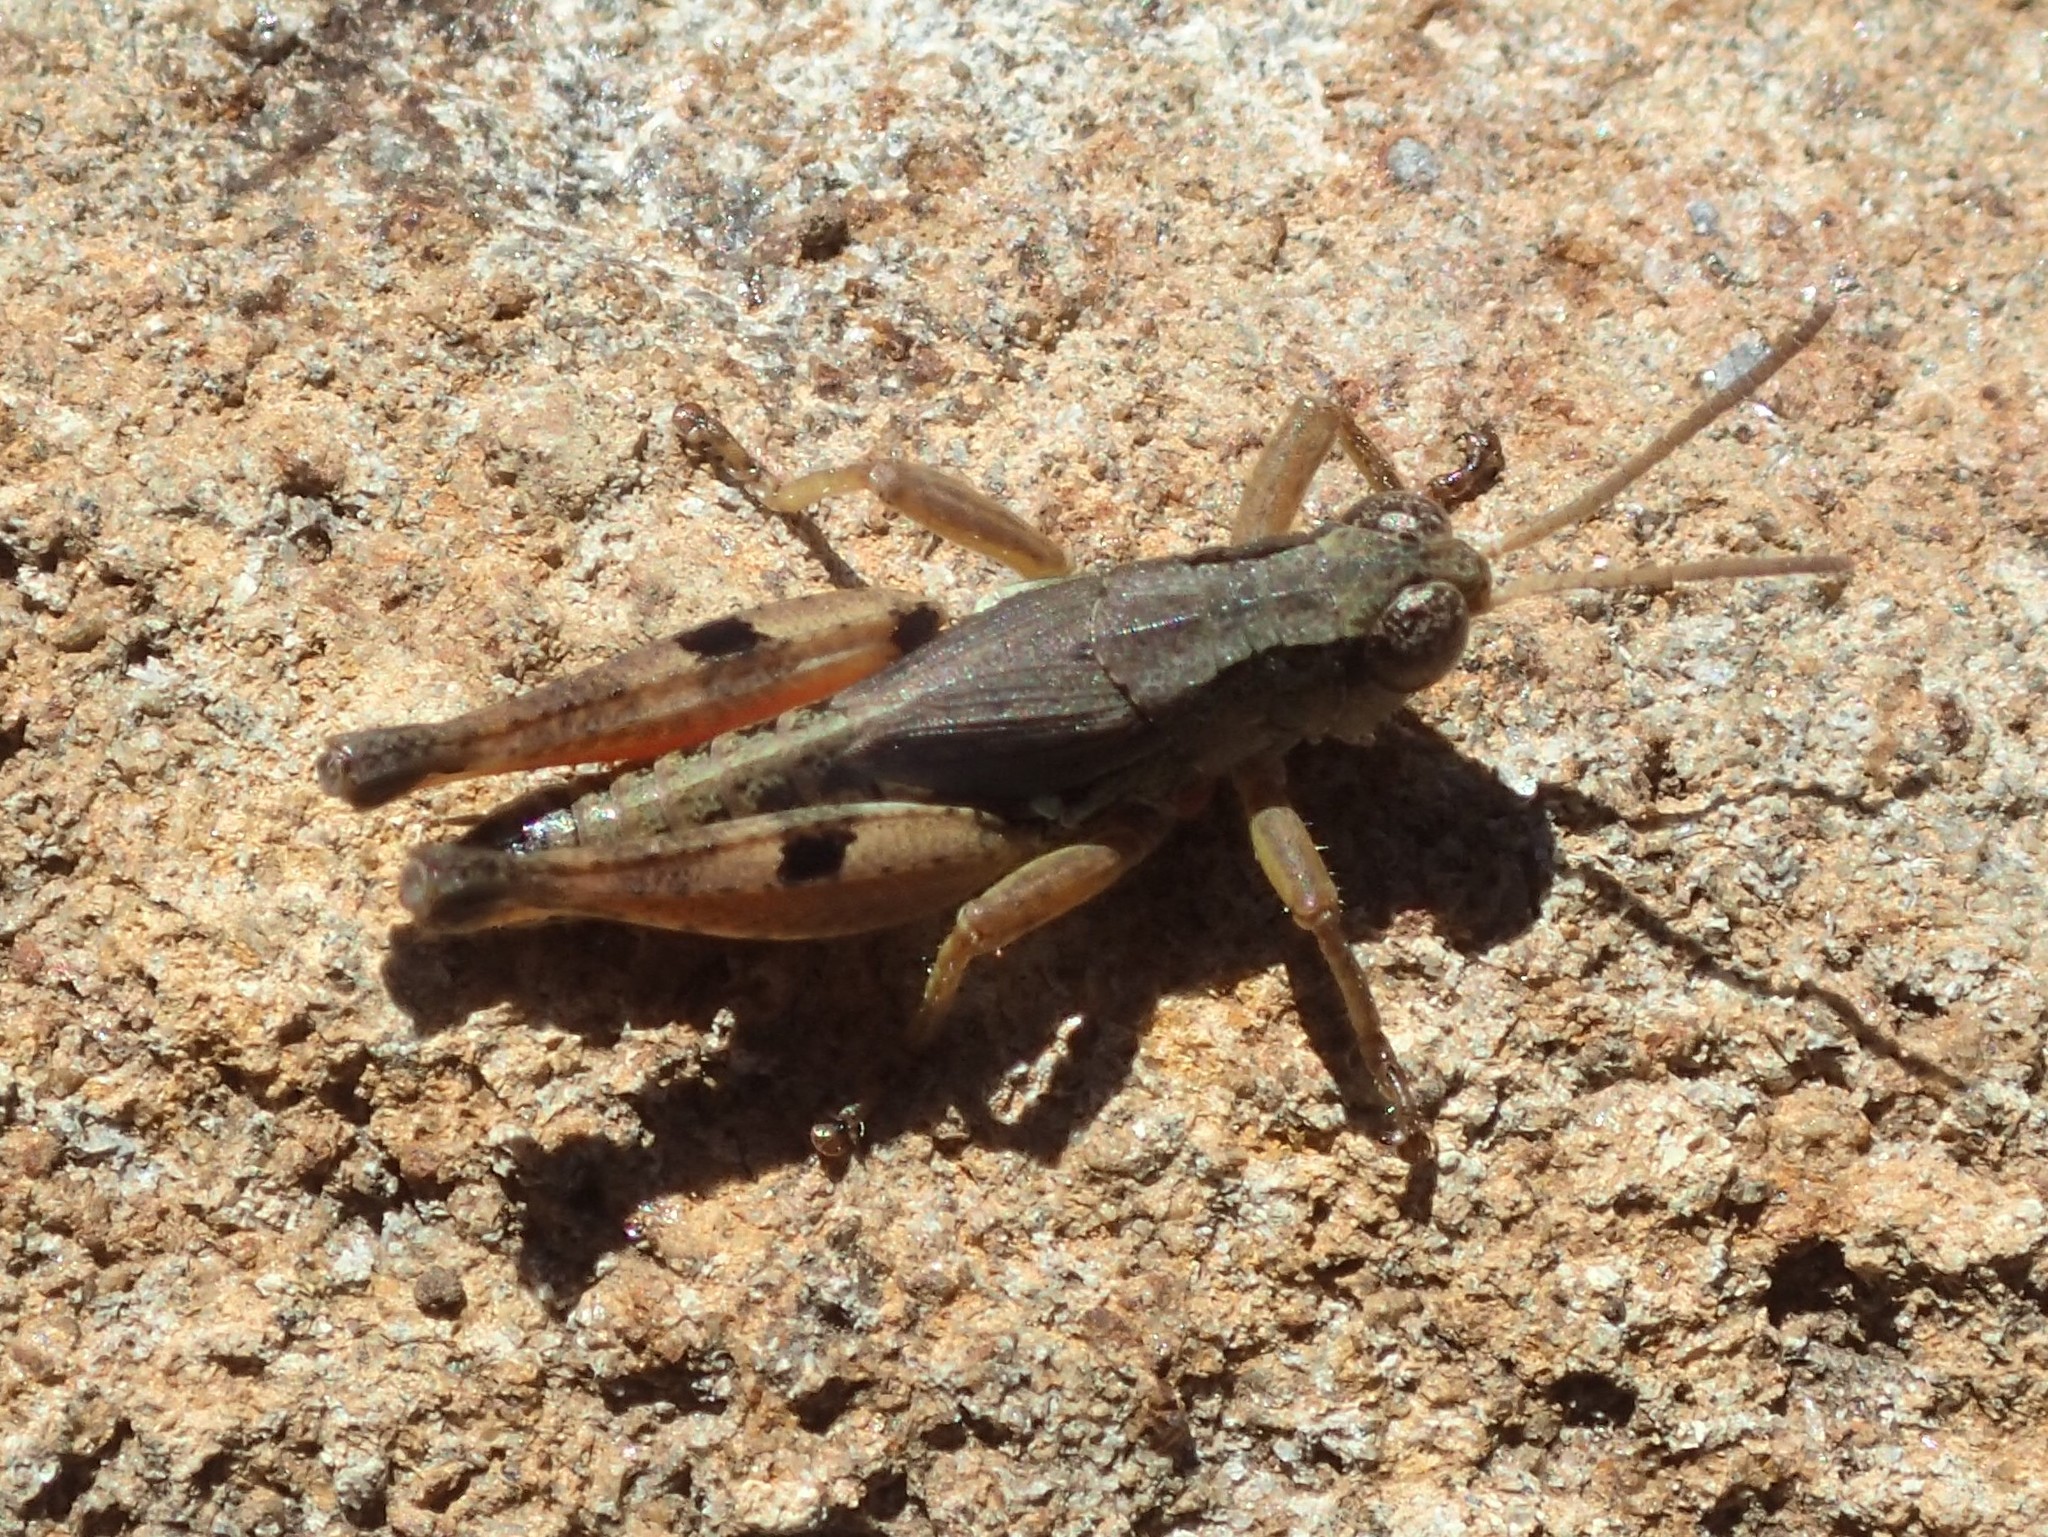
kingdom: Animalia
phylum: Arthropoda
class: Insecta
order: Orthoptera
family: Acrididae
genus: Phaulacridium
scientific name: Phaulacridium vittatum
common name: Wingless grasshopper
